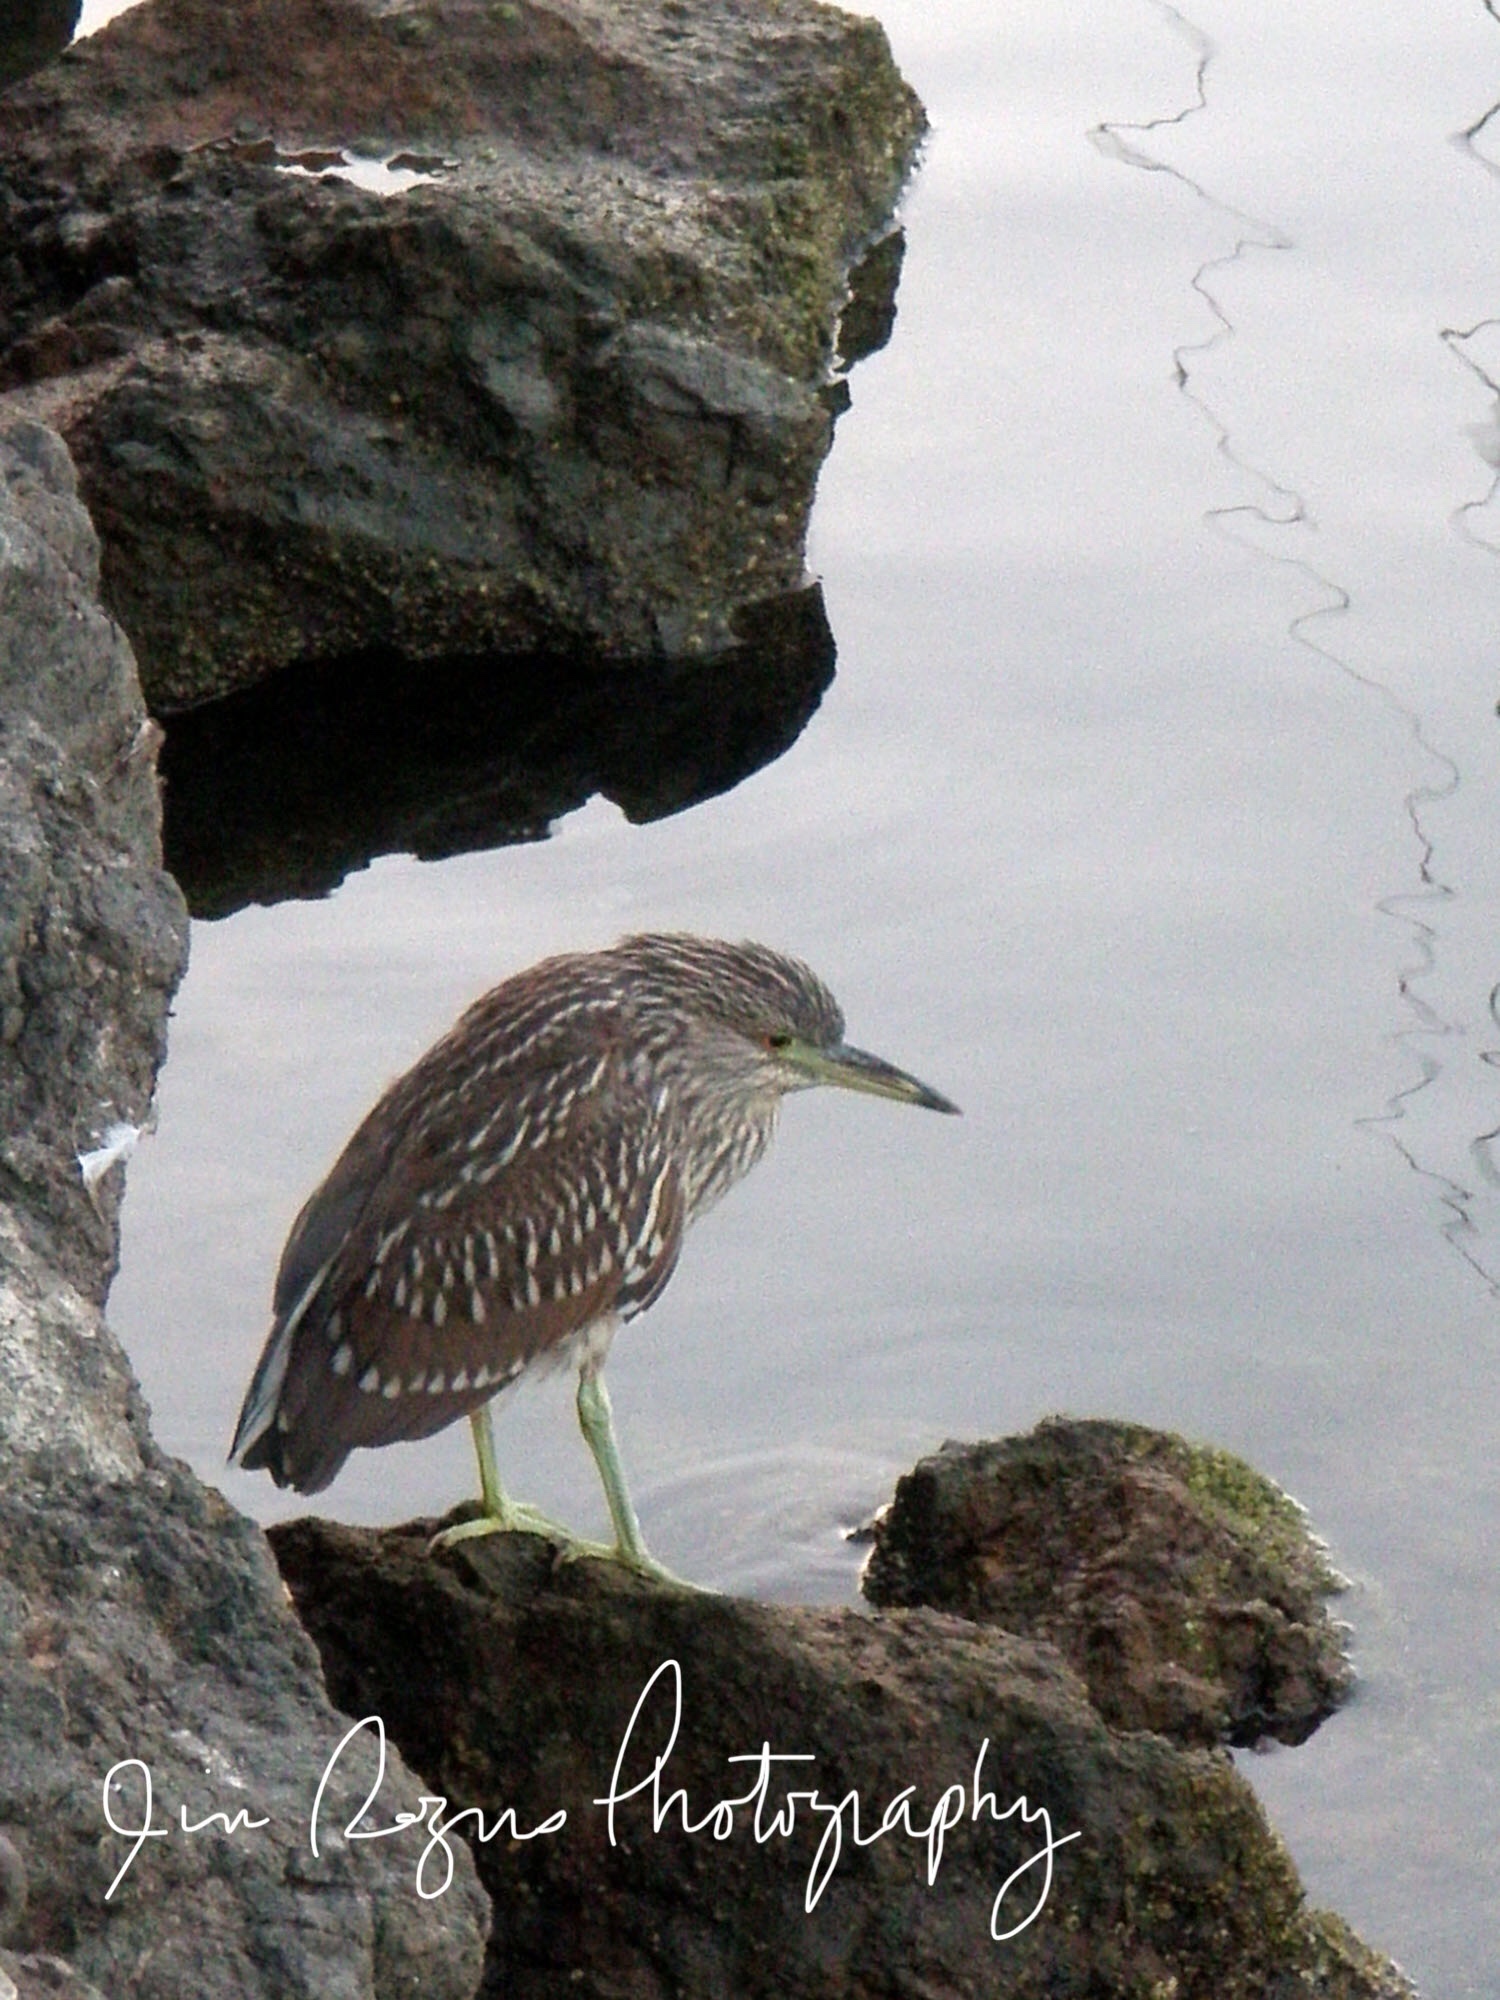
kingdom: Animalia
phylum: Chordata
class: Aves
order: Pelecaniformes
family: Ardeidae
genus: Nycticorax
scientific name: Nycticorax nycticorax
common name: Black-crowned night heron
